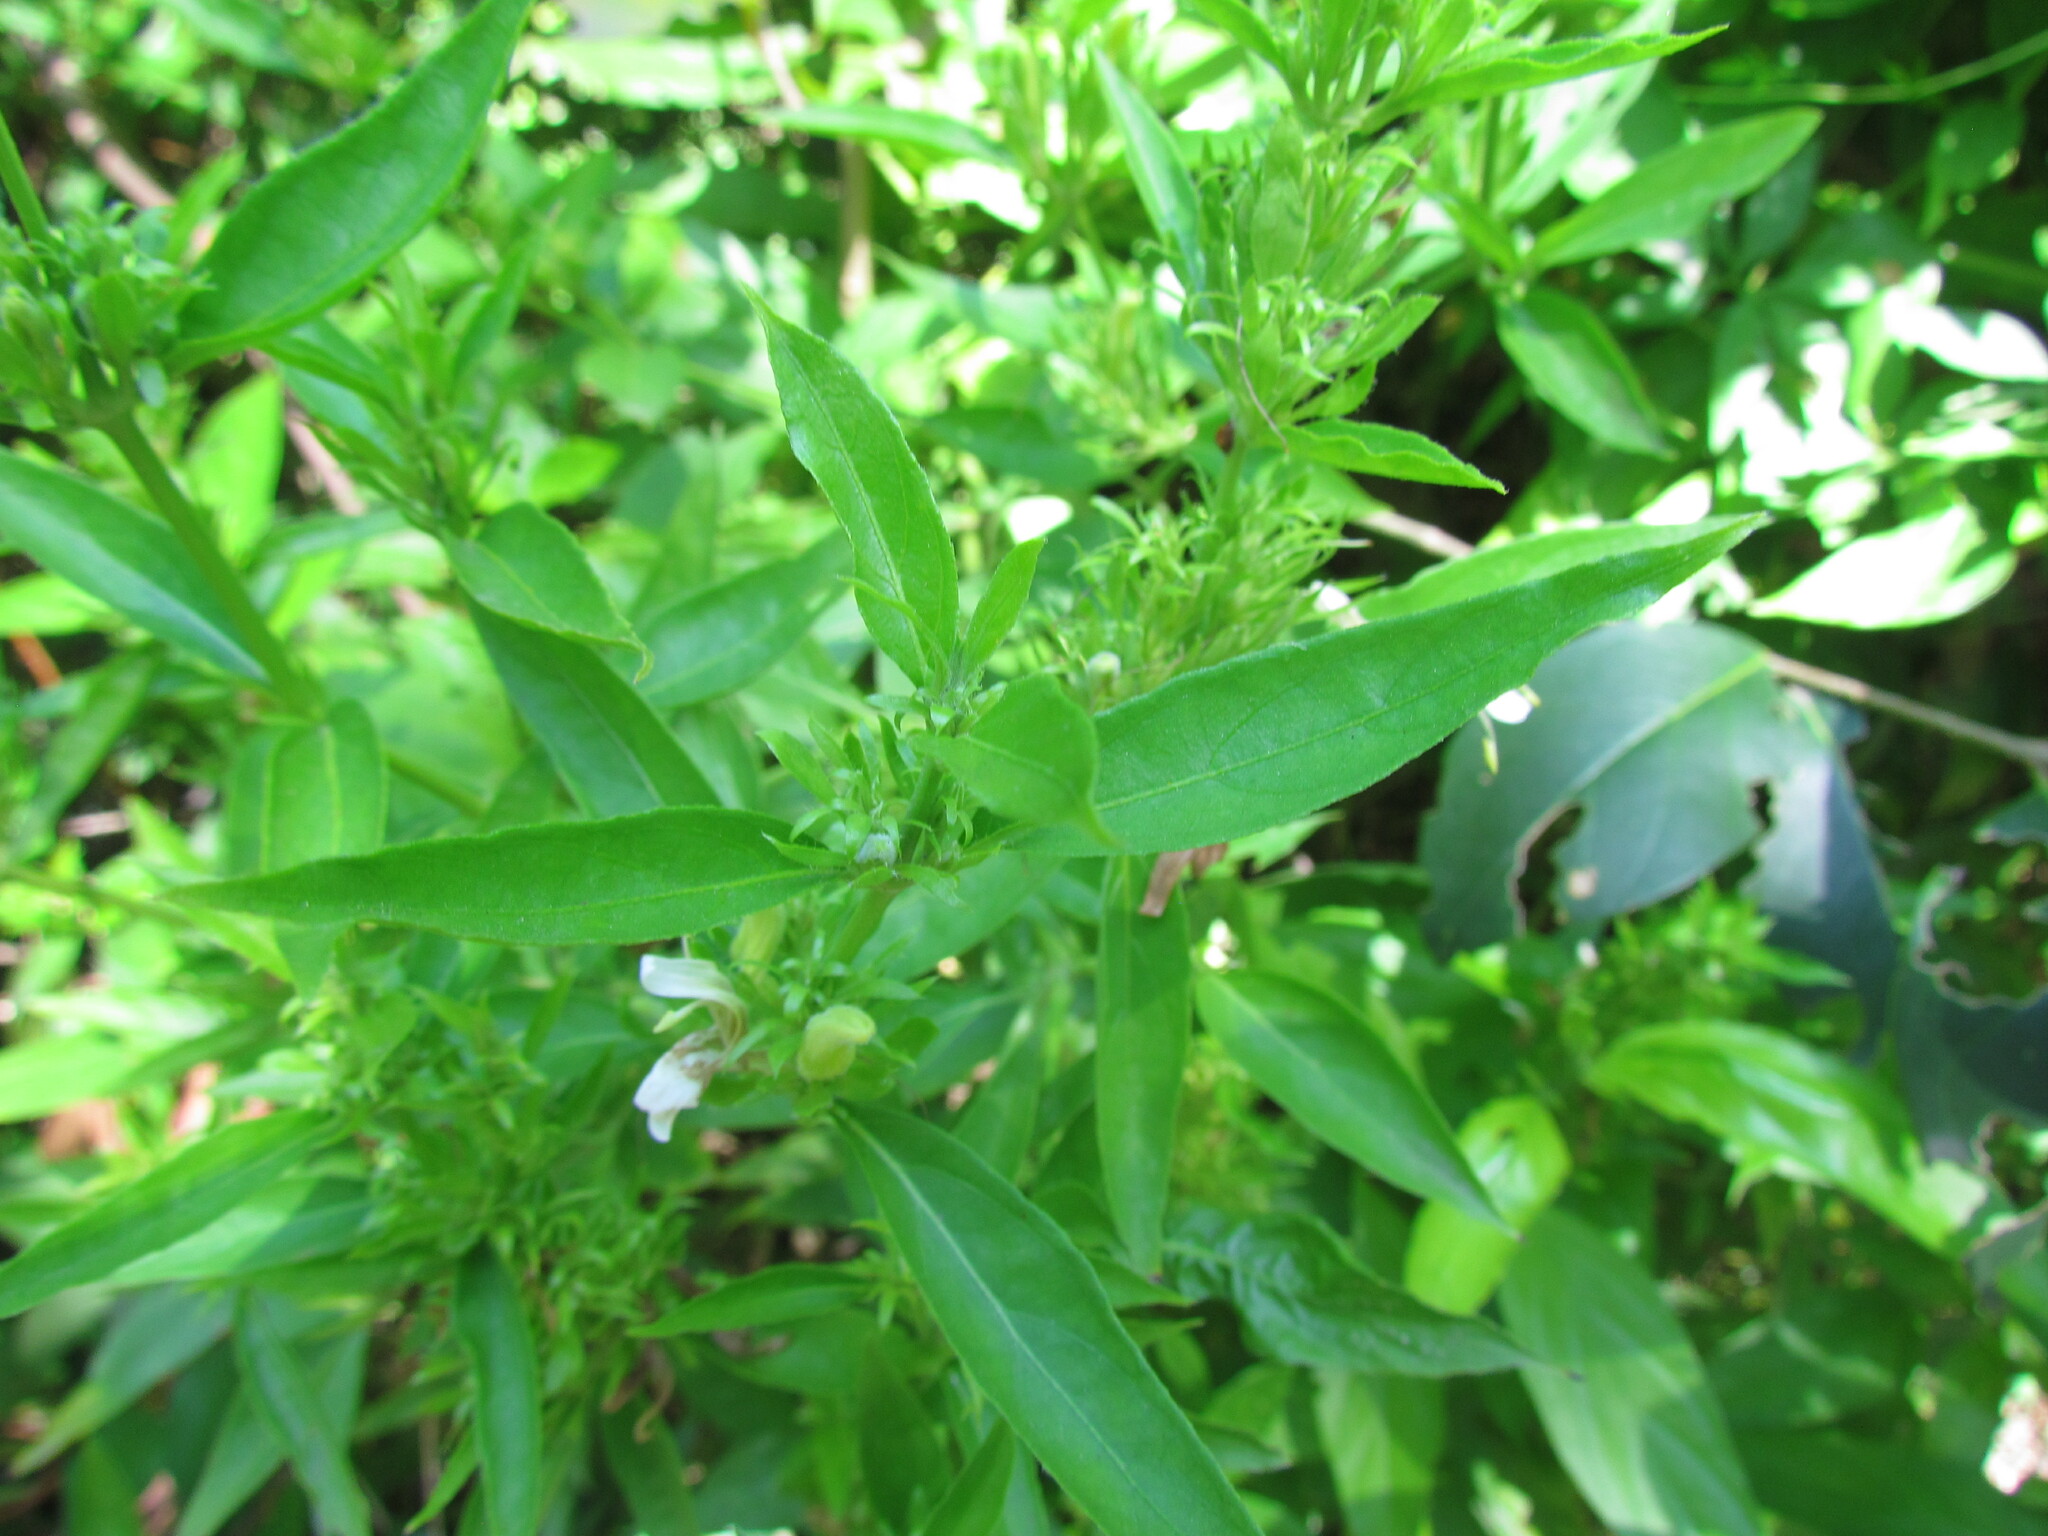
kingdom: Plantae
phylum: Tracheophyta
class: Magnoliopsida
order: Lamiales
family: Acanthaceae
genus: Poikilacanthus
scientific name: Poikilacanthus glandulosus
